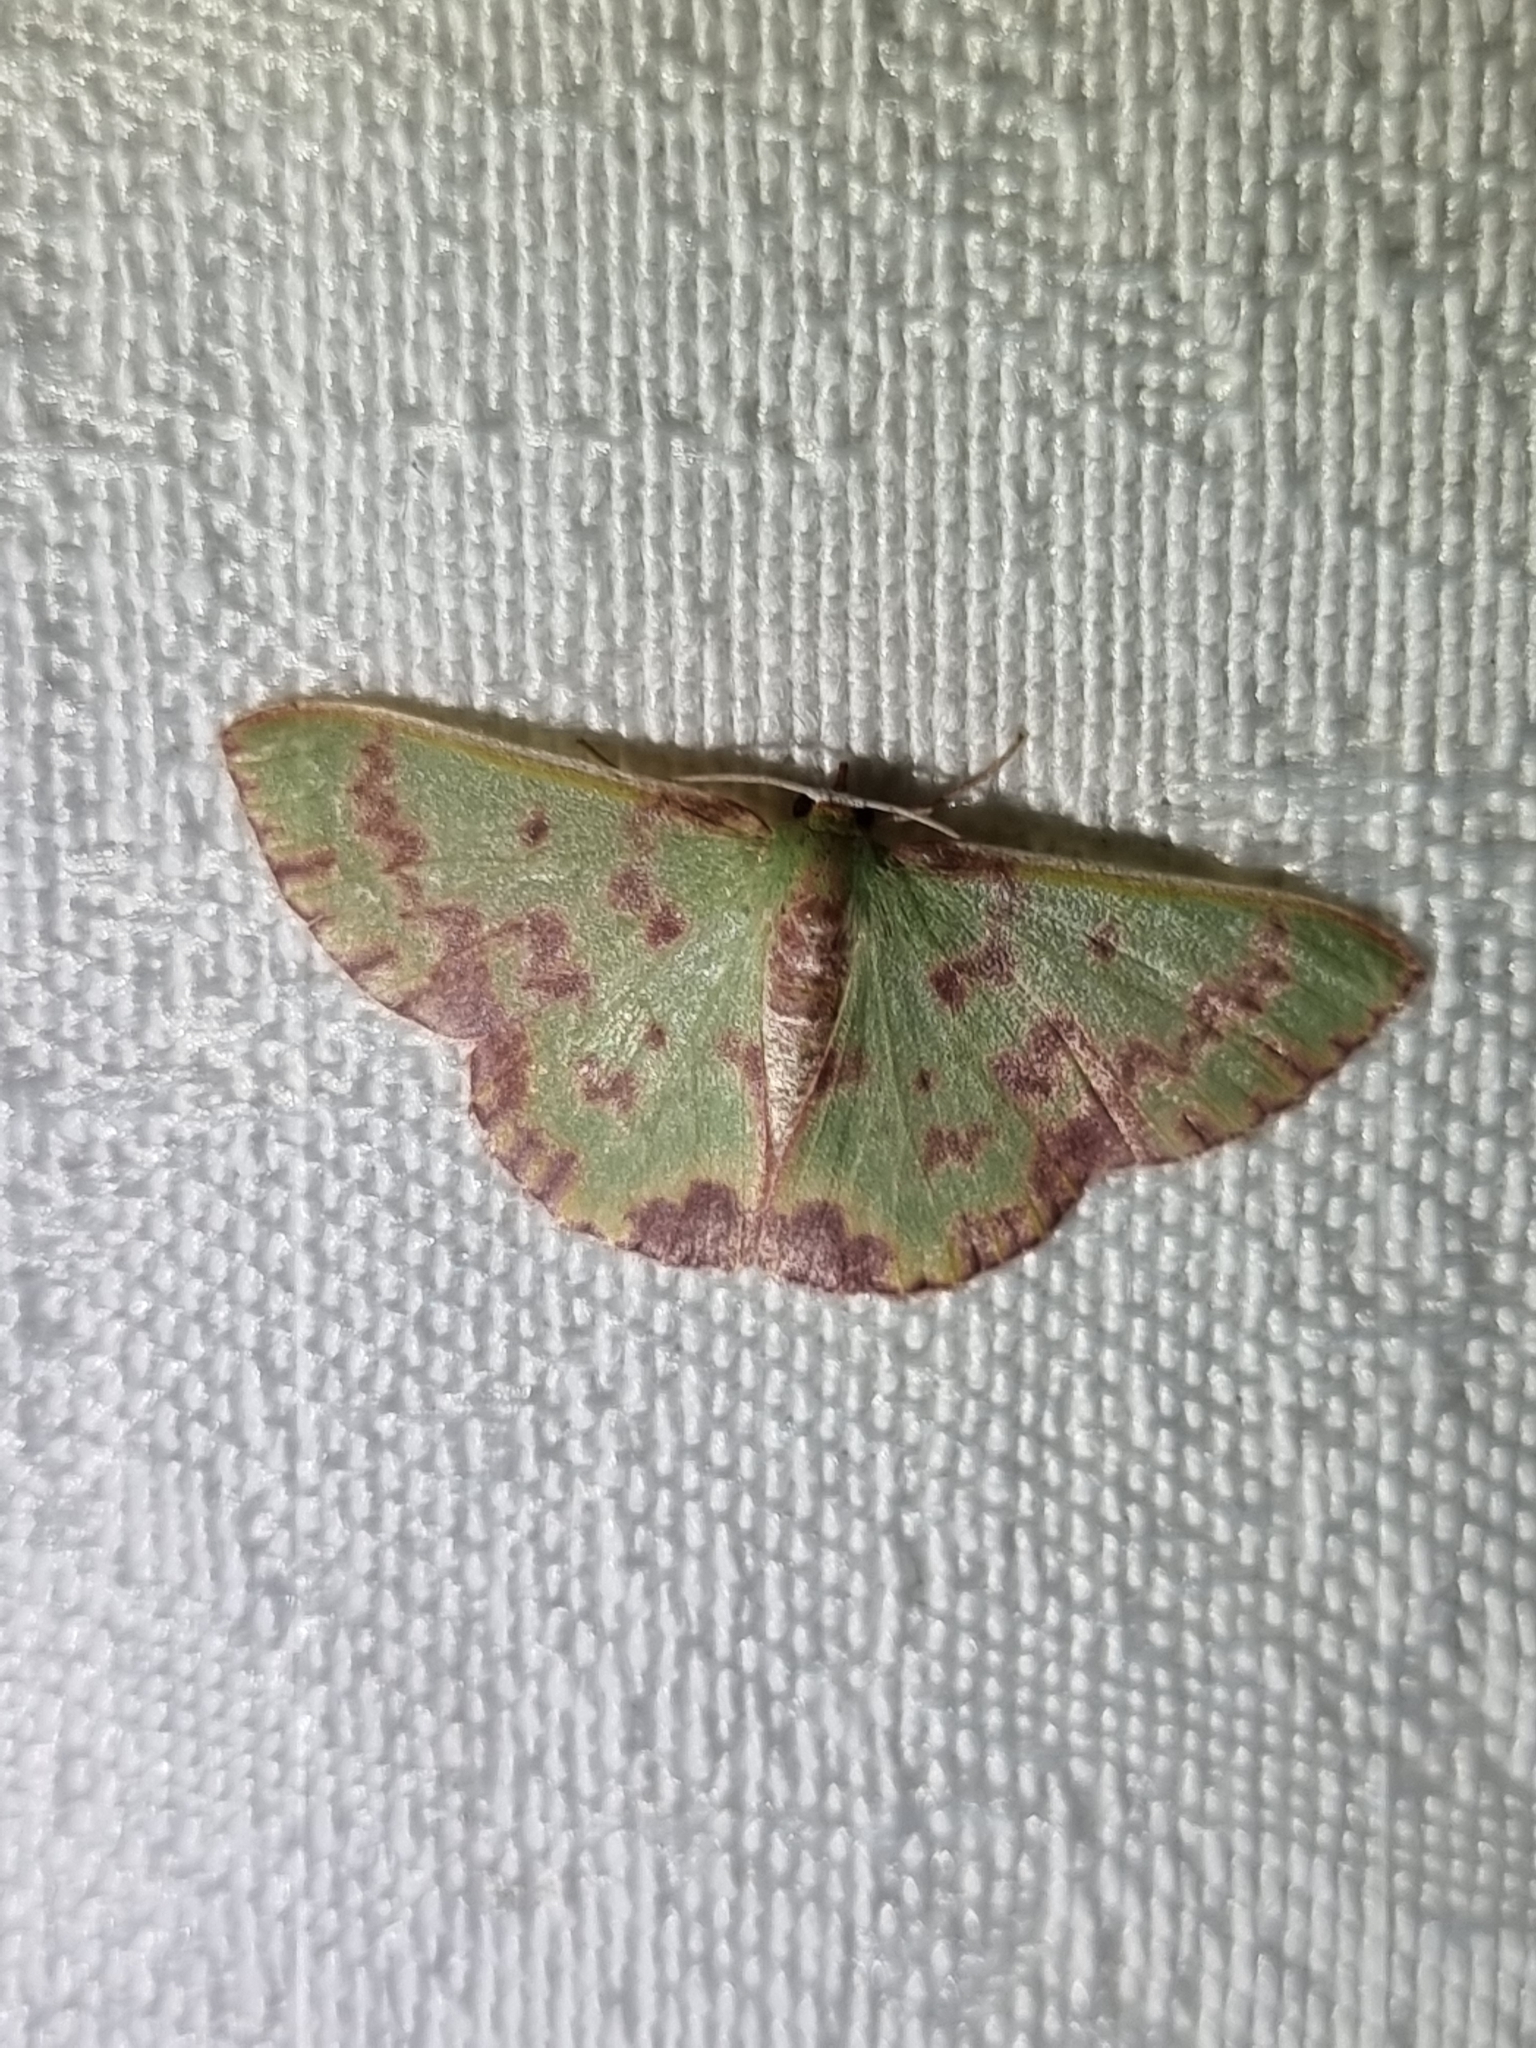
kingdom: Animalia
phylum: Arthropoda
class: Insecta
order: Lepidoptera
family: Geometridae
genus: Prasinocyma
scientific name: Prasinocyma rhodocosma
